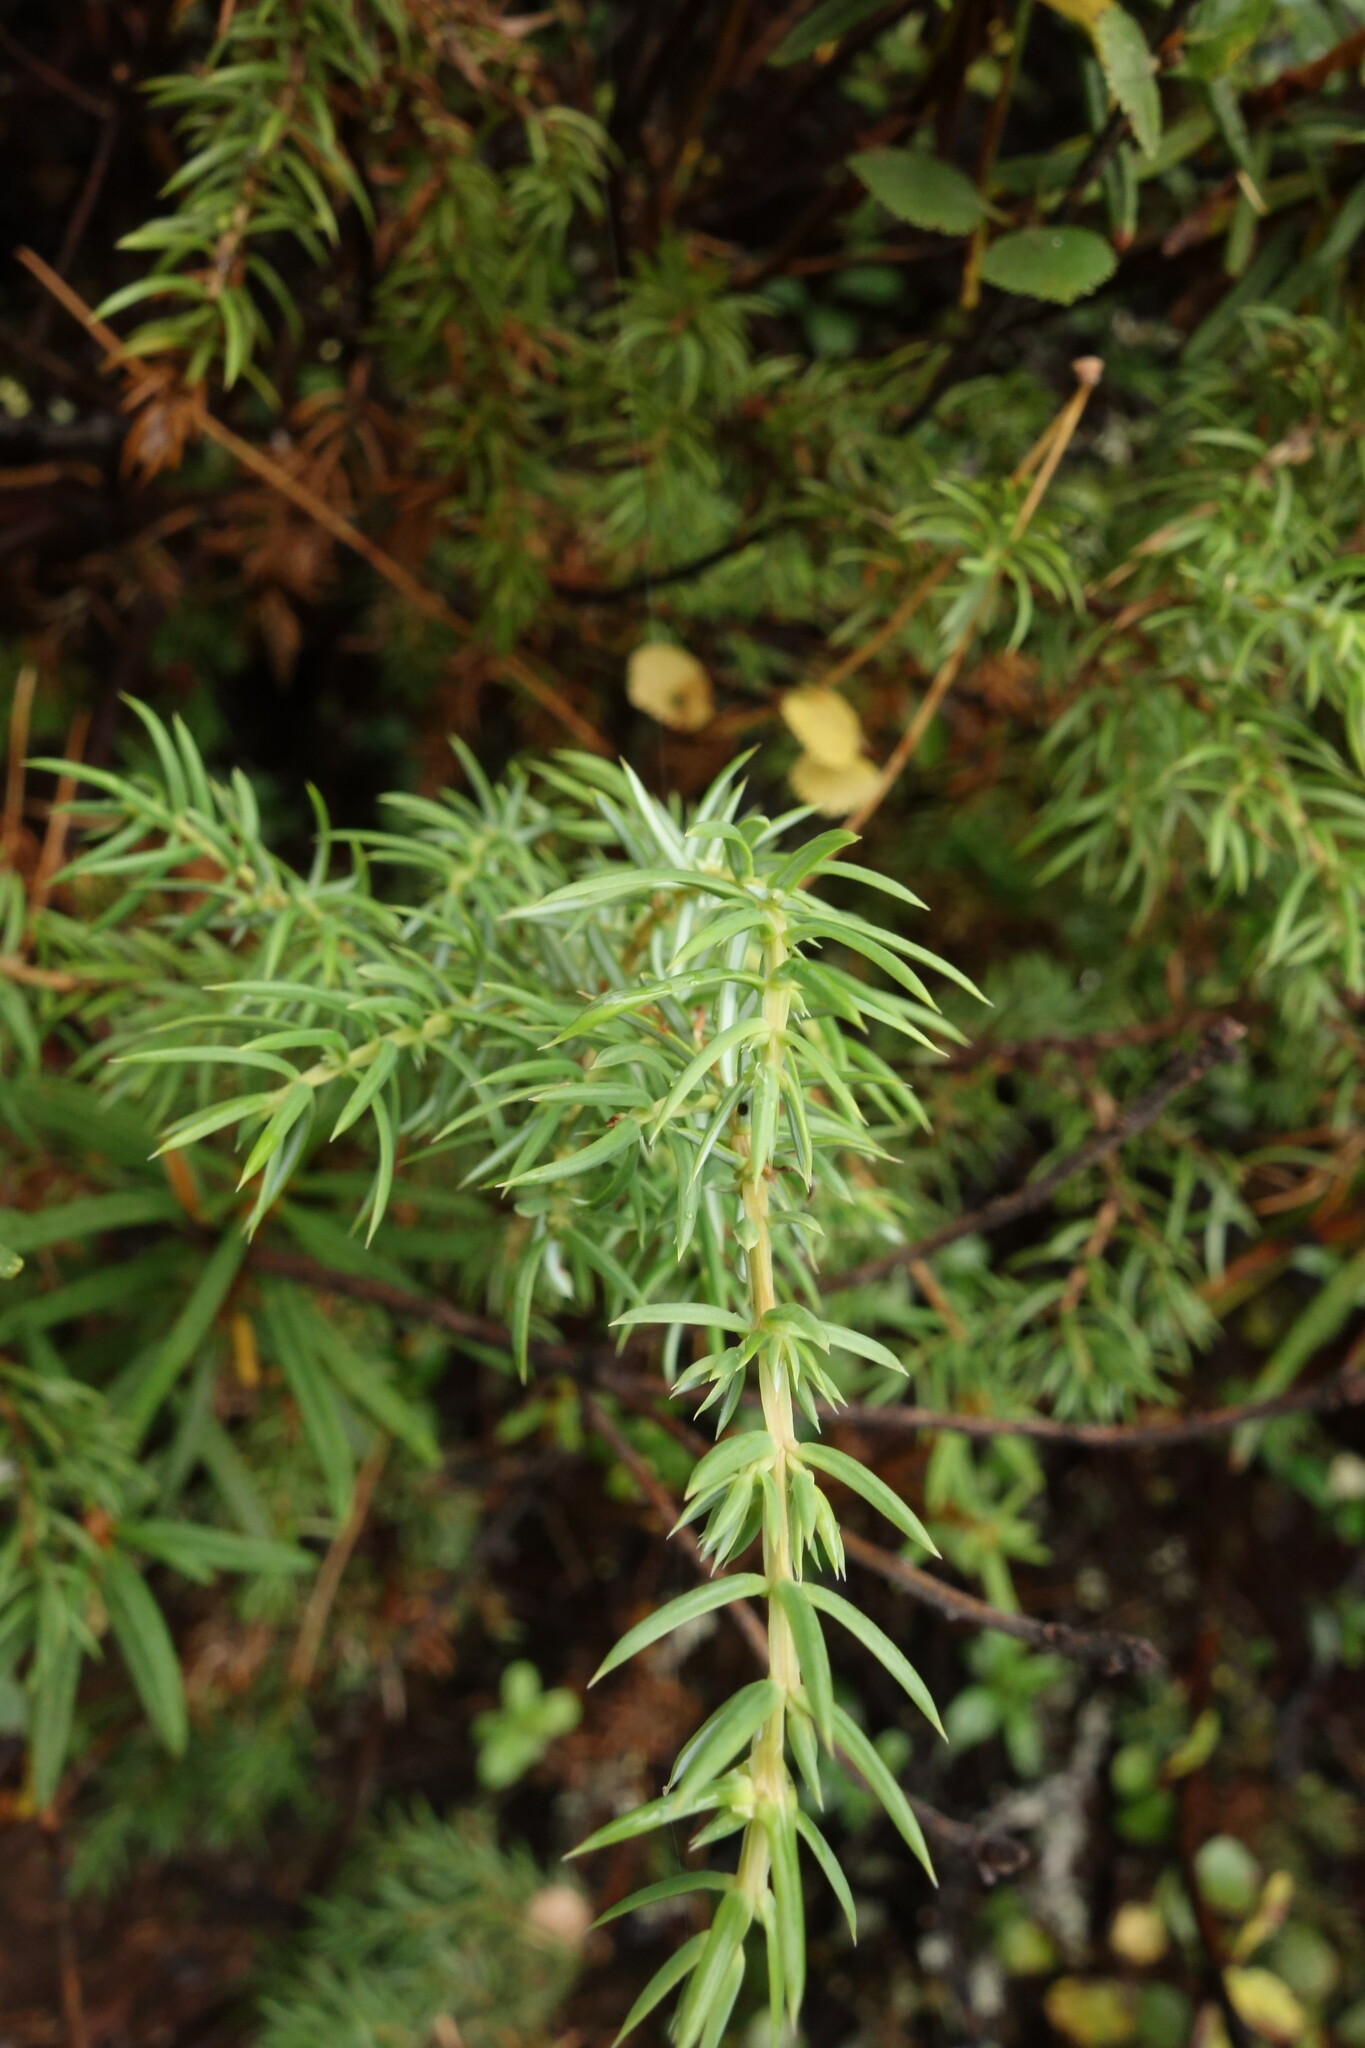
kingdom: Plantae
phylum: Tracheophyta
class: Pinopsida
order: Pinales
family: Cupressaceae
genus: Juniperus
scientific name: Juniperus communis
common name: Common juniper
